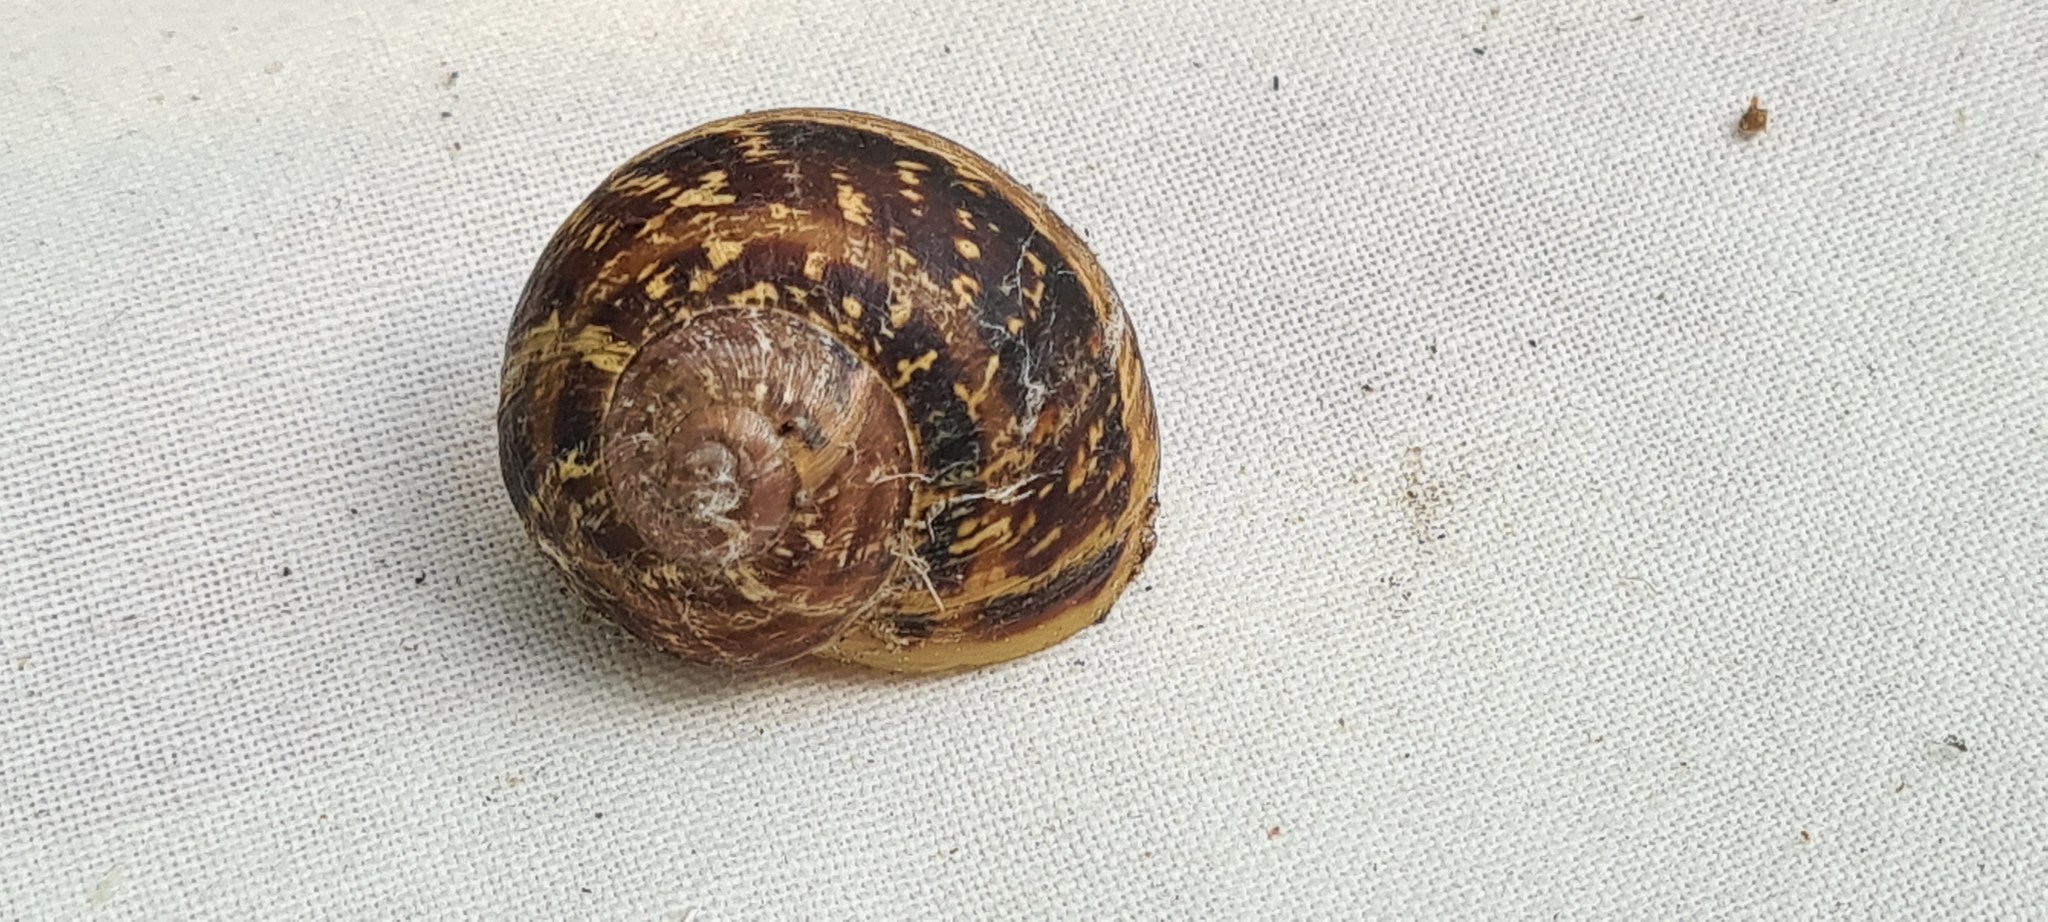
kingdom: Animalia
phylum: Mollusca
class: Gastropoda
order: Stylommatophora
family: Helicidae
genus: Cornu
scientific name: Cornu aspersum
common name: Brown garden snail
